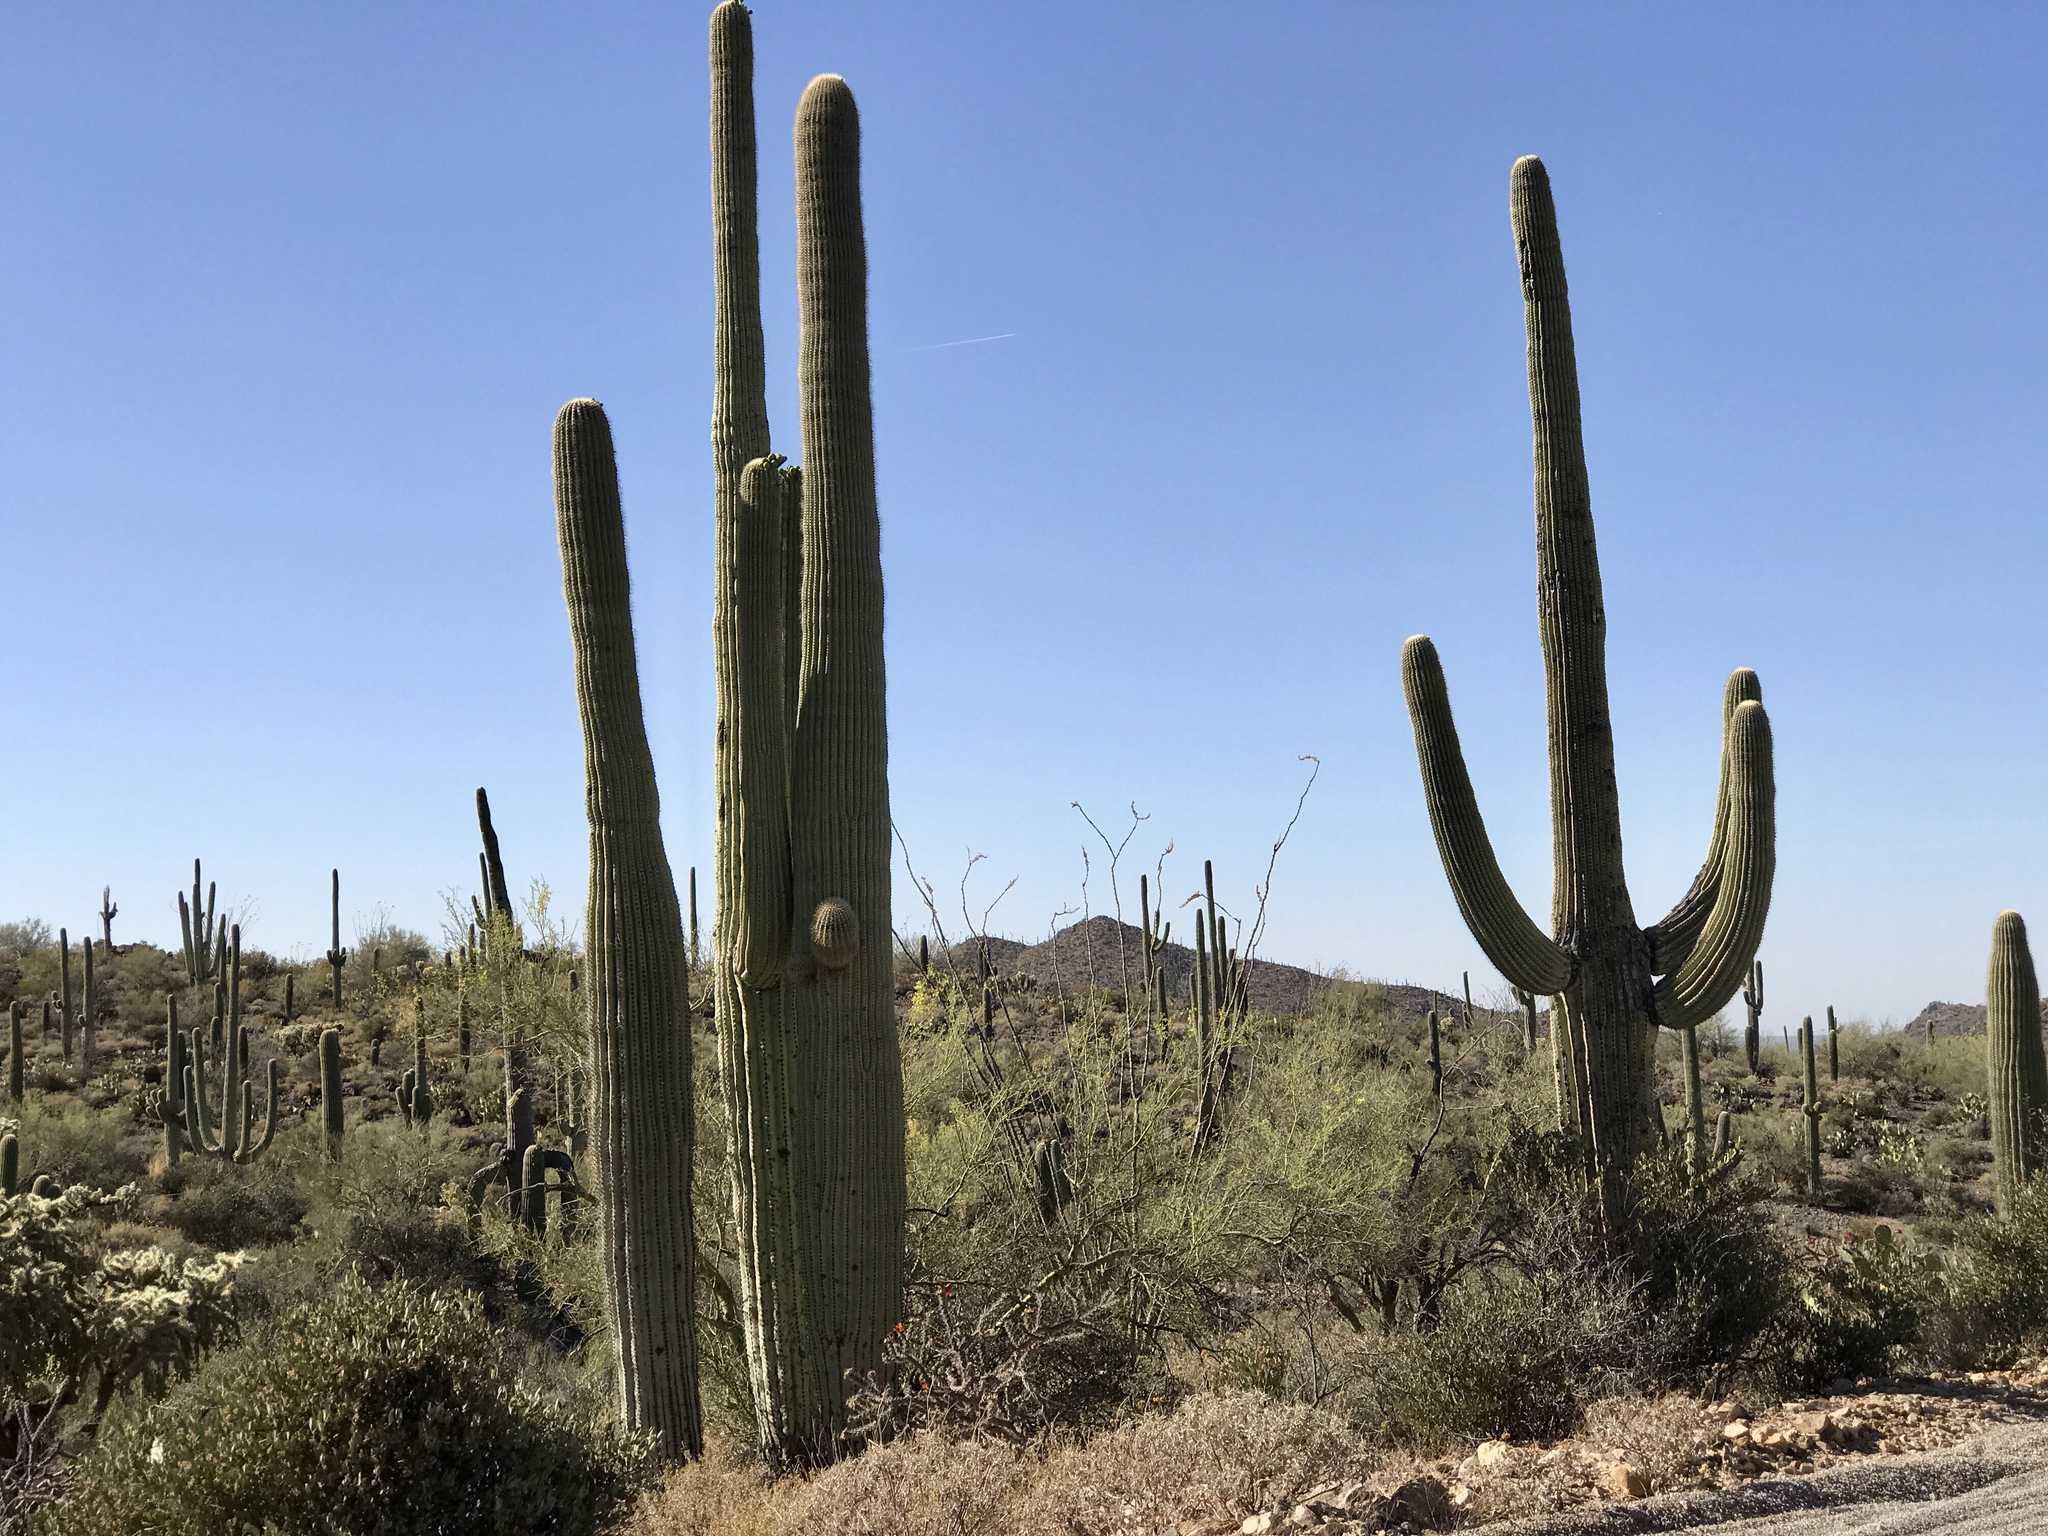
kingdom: Plantae
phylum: Tracheophyta
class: Magnoliopsida
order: Caryophyllales
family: Cactaceae
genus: Carnegiea
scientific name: Carnegiea gigantea
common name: Saguaro
